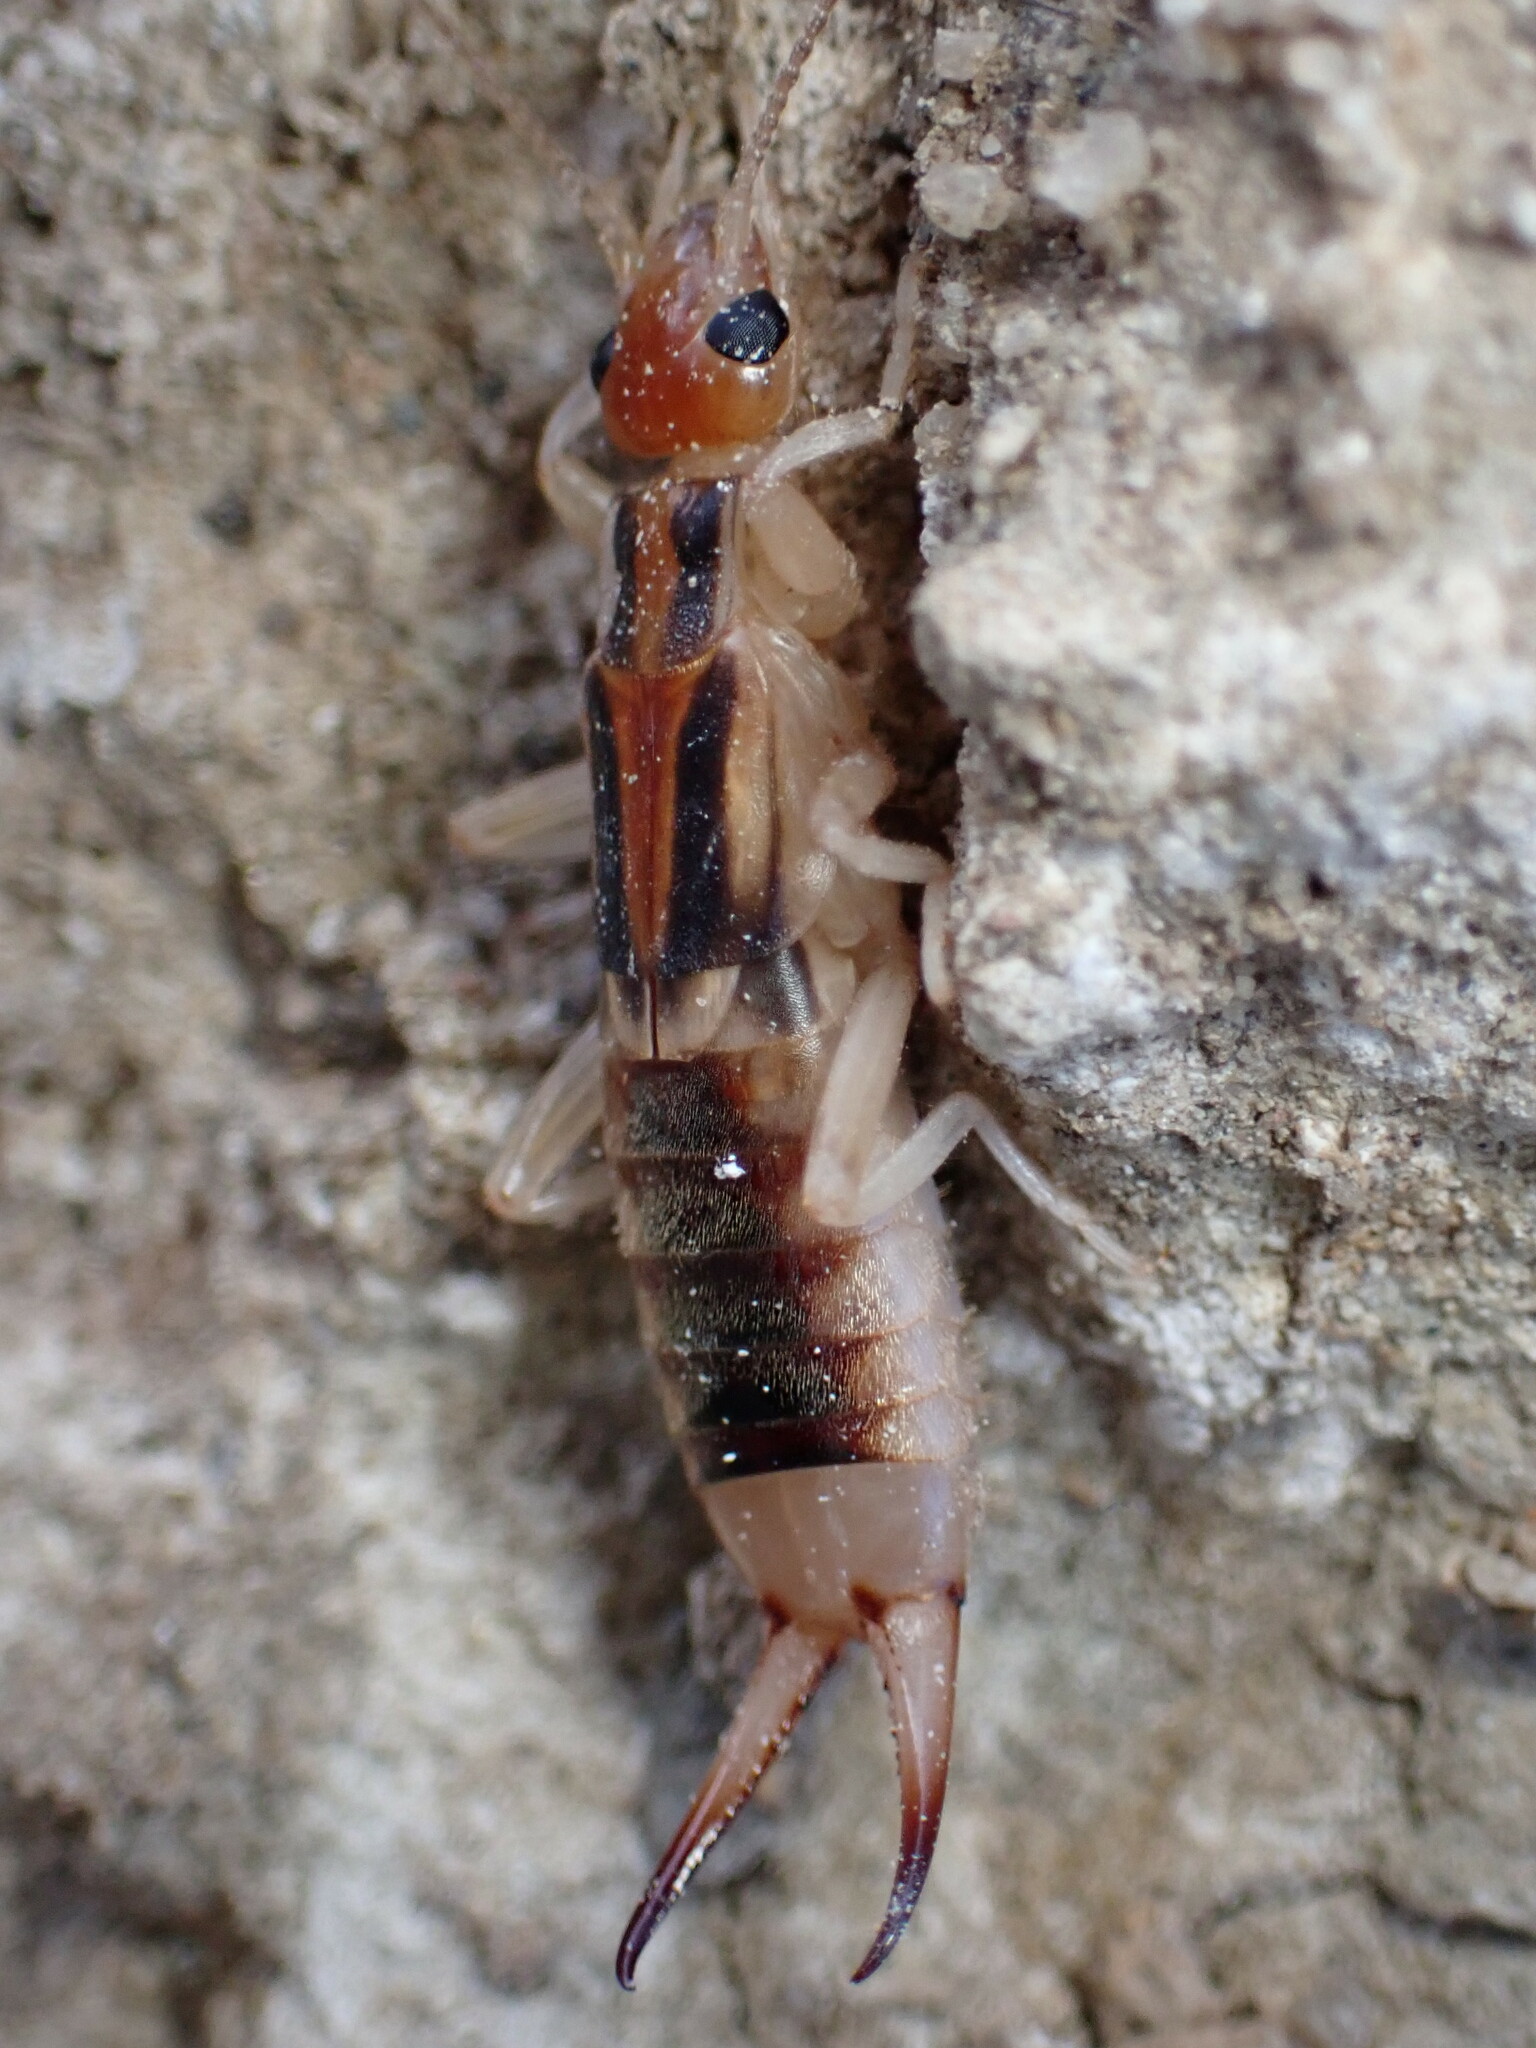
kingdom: Animalia
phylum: Arthropoda
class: Insecta
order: Dermaptera
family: Labiduridae
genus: Labidura
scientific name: Labidura riparia
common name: Striped earwig
